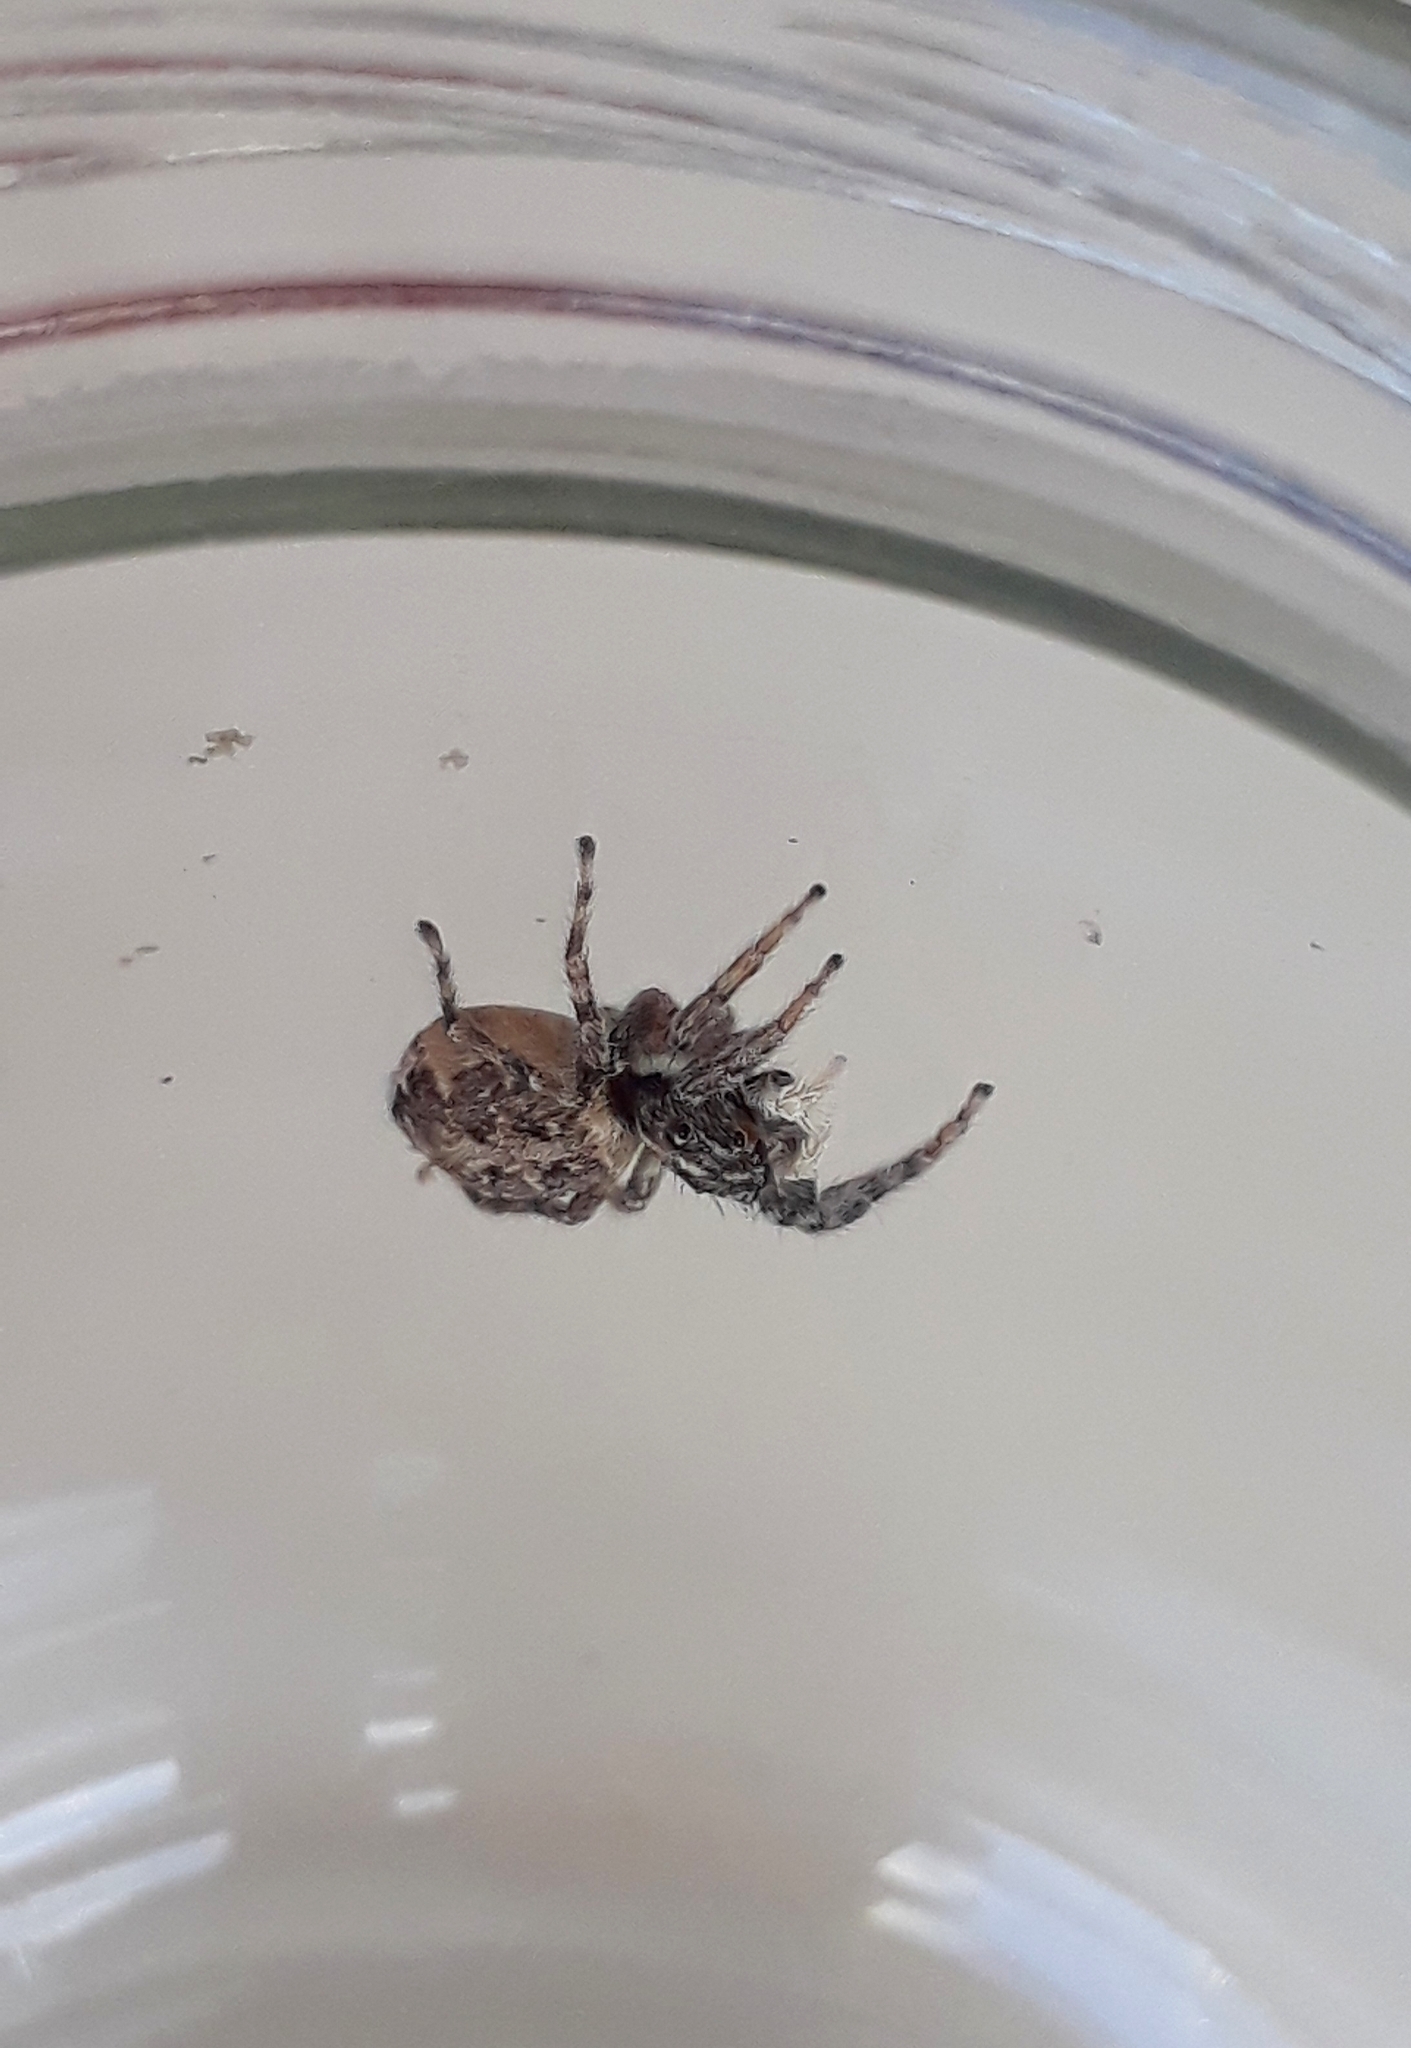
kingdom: Animalia
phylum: Arthropoda
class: Arachnida
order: Araneae
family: Salticidae
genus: Menemerus
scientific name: Menemerus semilimbatus
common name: Jumping spider
